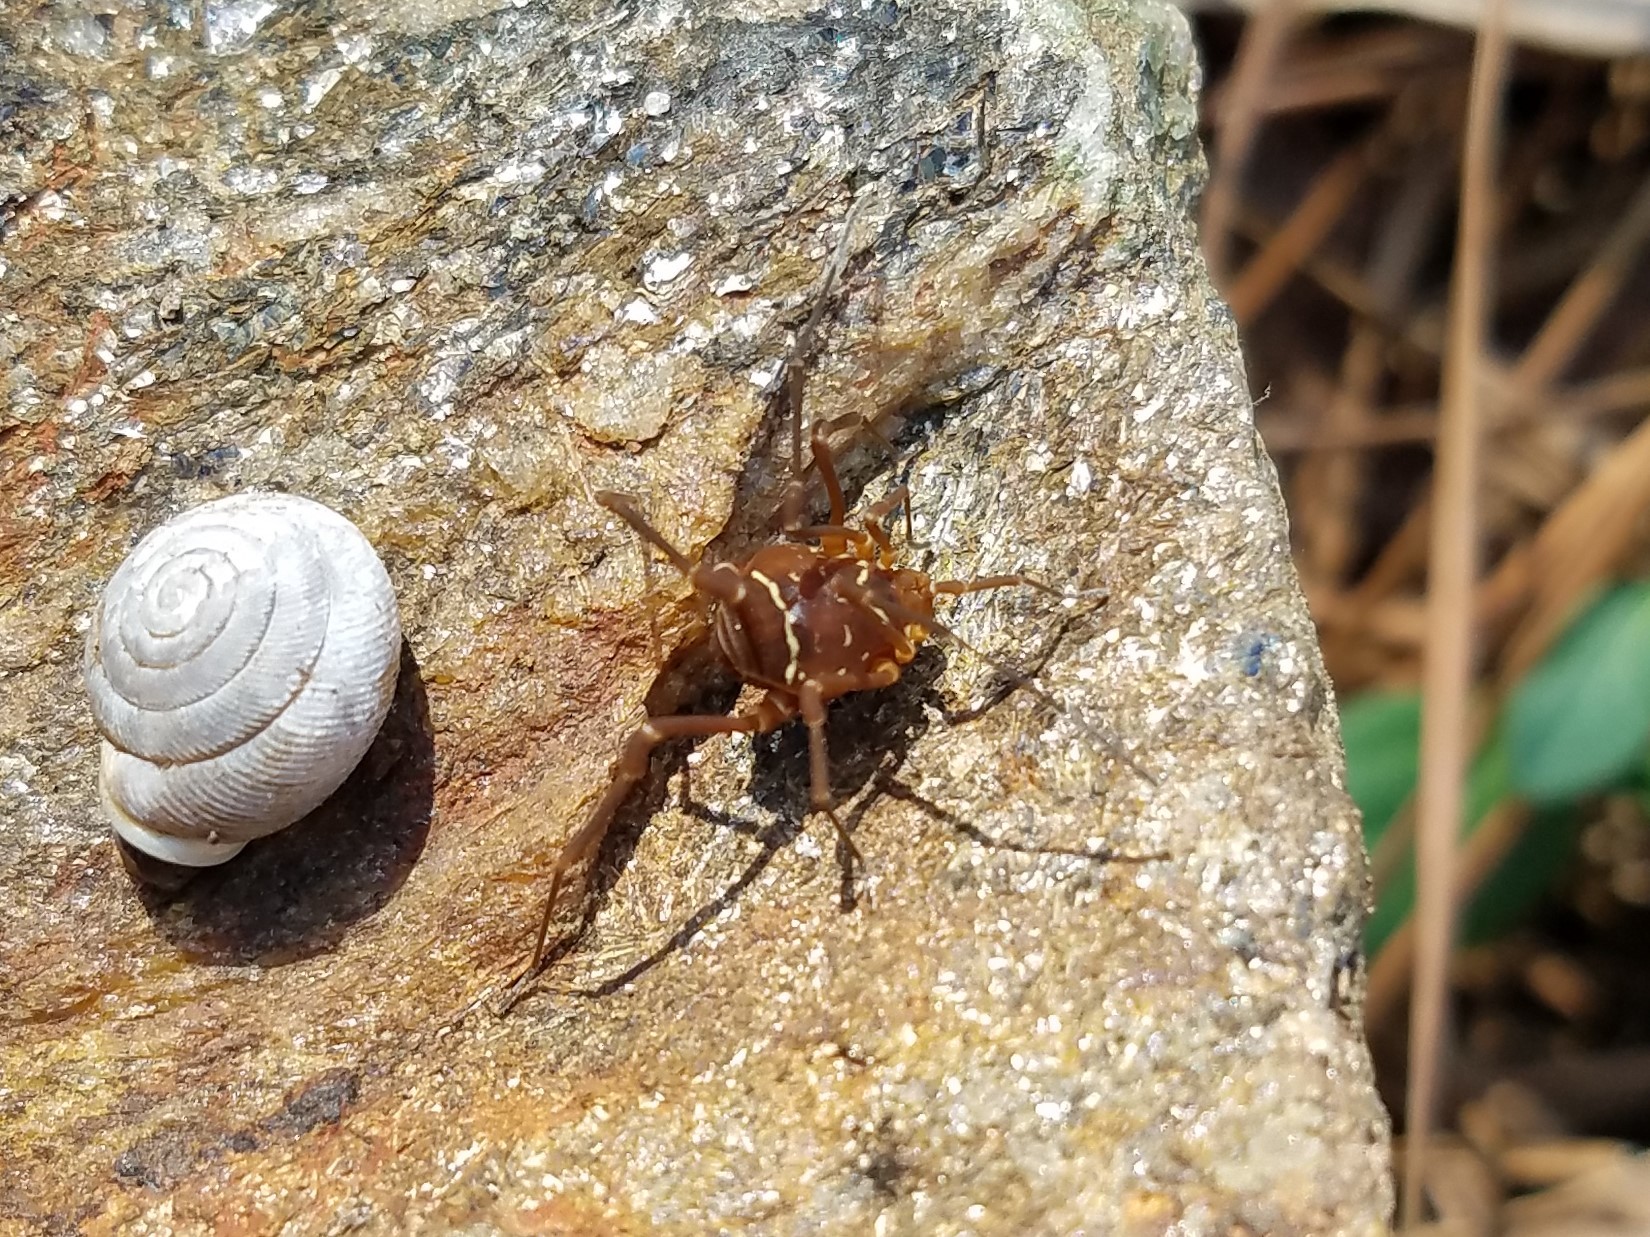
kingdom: Animalia
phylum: Arthropoda
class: Arachnida
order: Opiliones
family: Cosmetidae
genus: Libitioides
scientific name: Libitioides sayi
